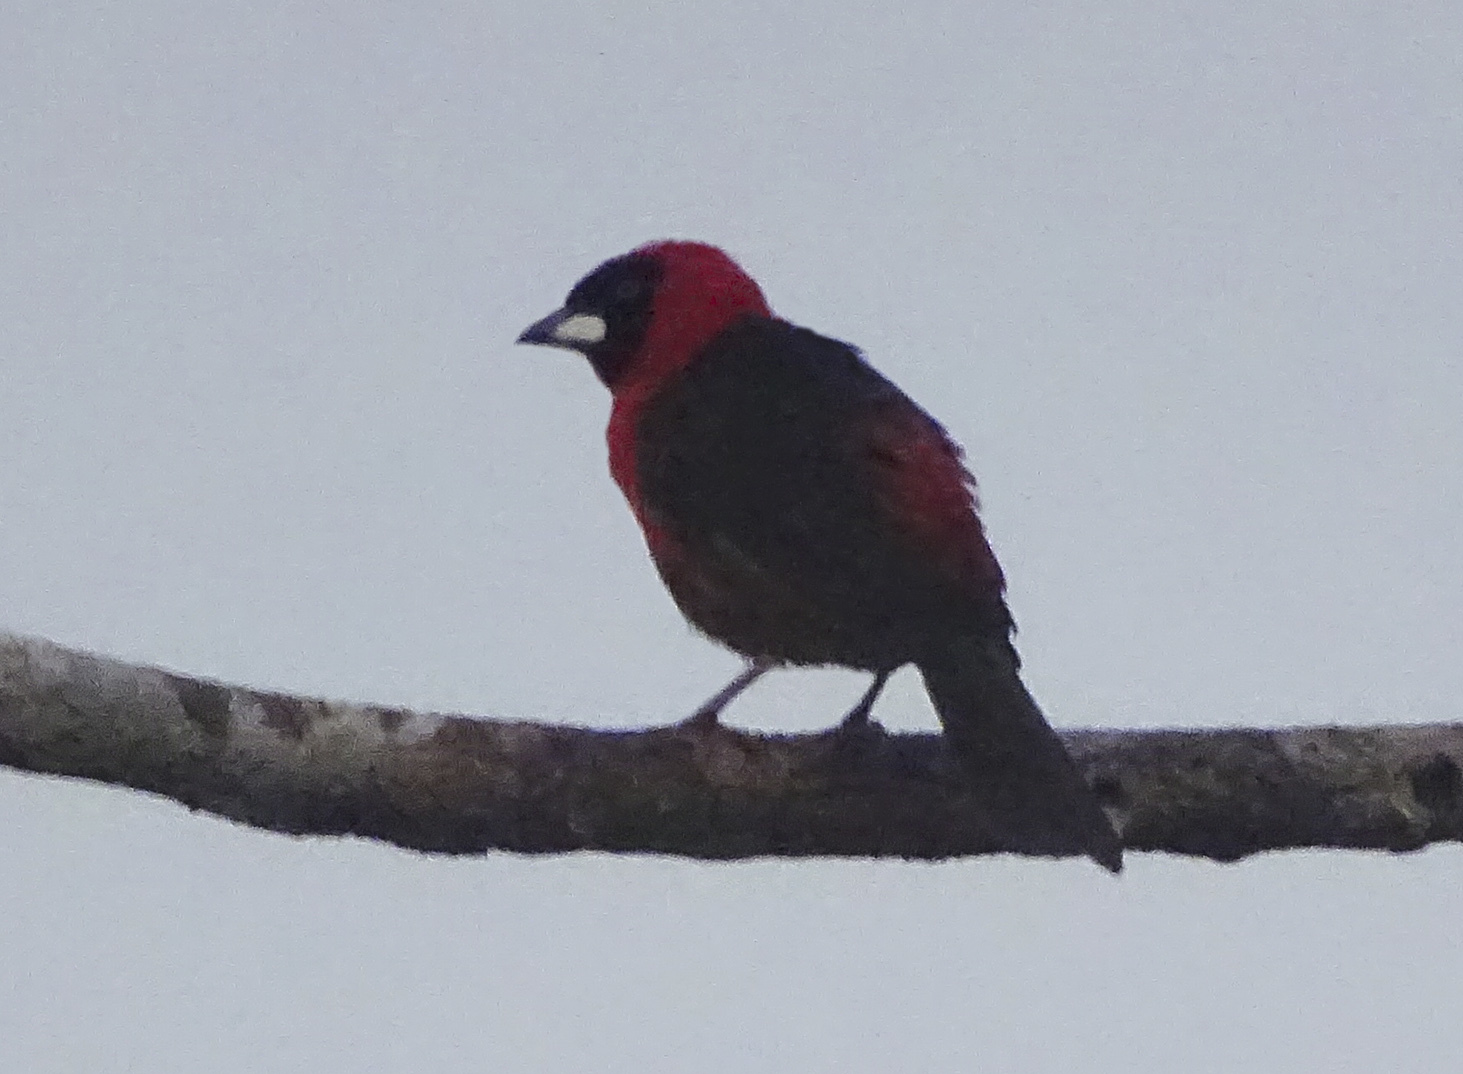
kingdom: Animalia
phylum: Chordata
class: Aves
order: Passeriformes
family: Thraupidae
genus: Ramphocelus
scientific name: Ramphocelus nigrogularis
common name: Masked crimson tanager
